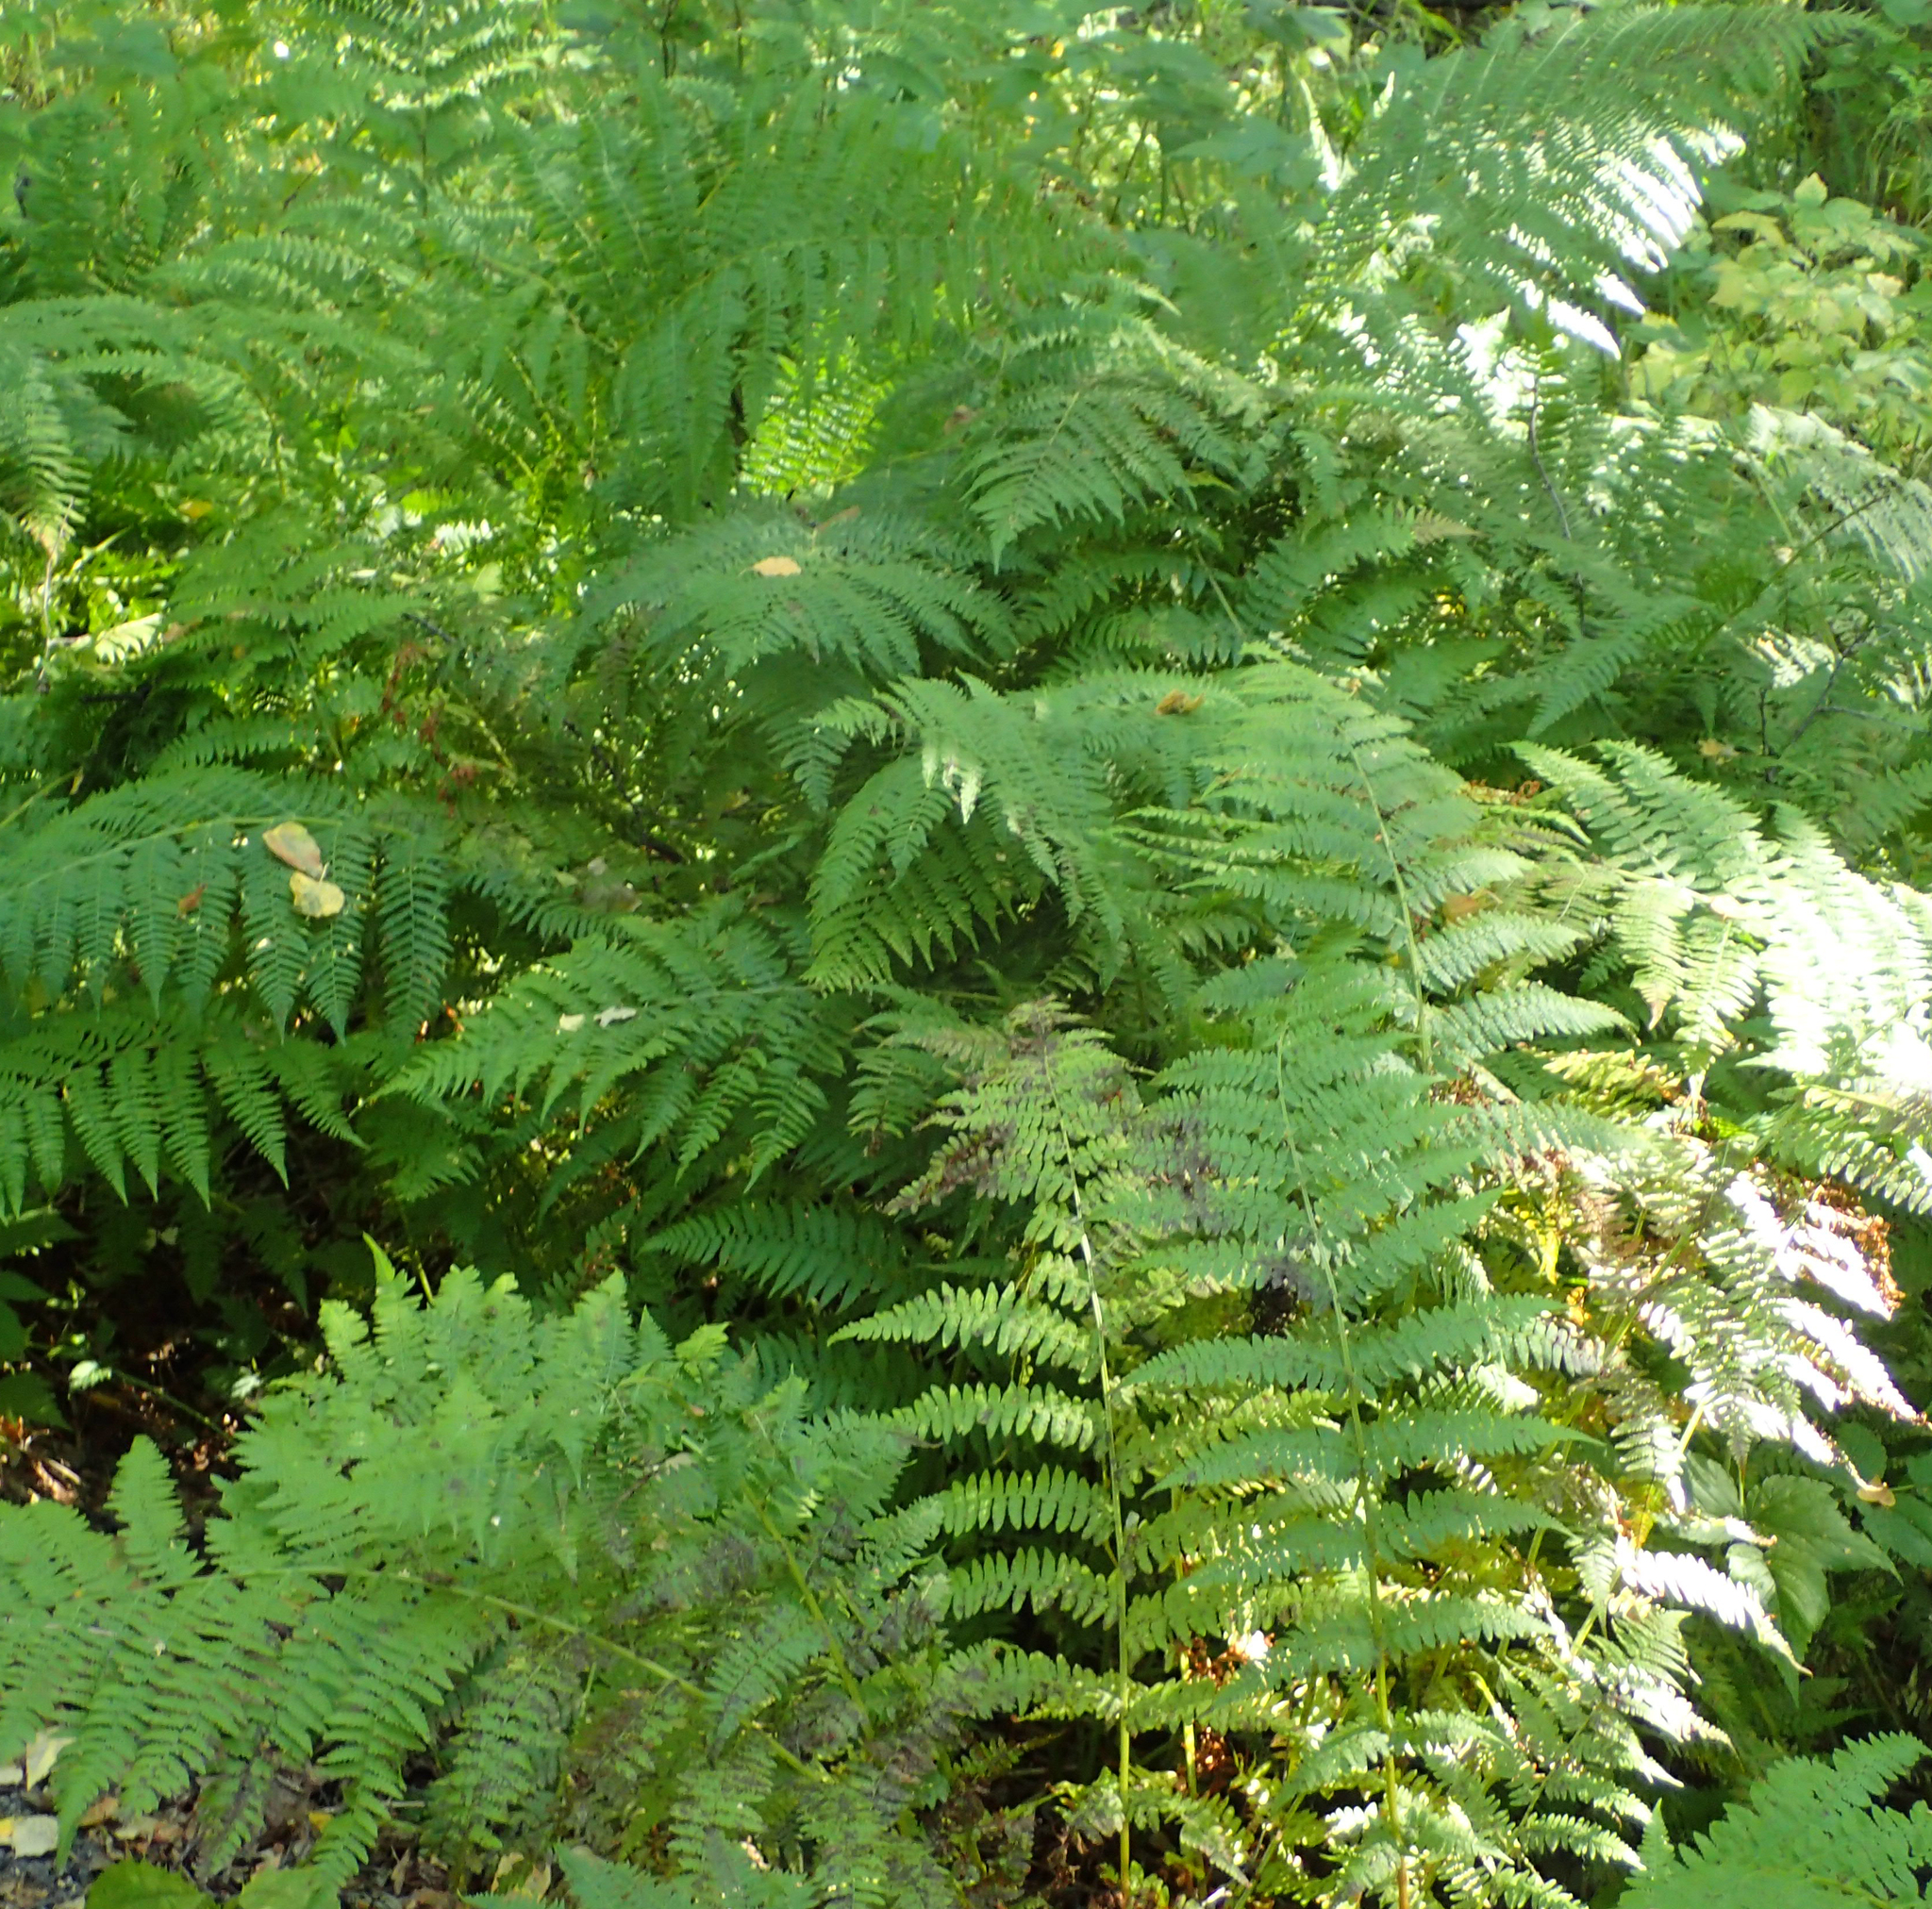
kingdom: Plantae
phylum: Tracheophyta
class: Polypodiopsida
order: Polypodiales
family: Athyriaceae
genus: Athyrium
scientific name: Athyrium filix-femina
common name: Lady fern
